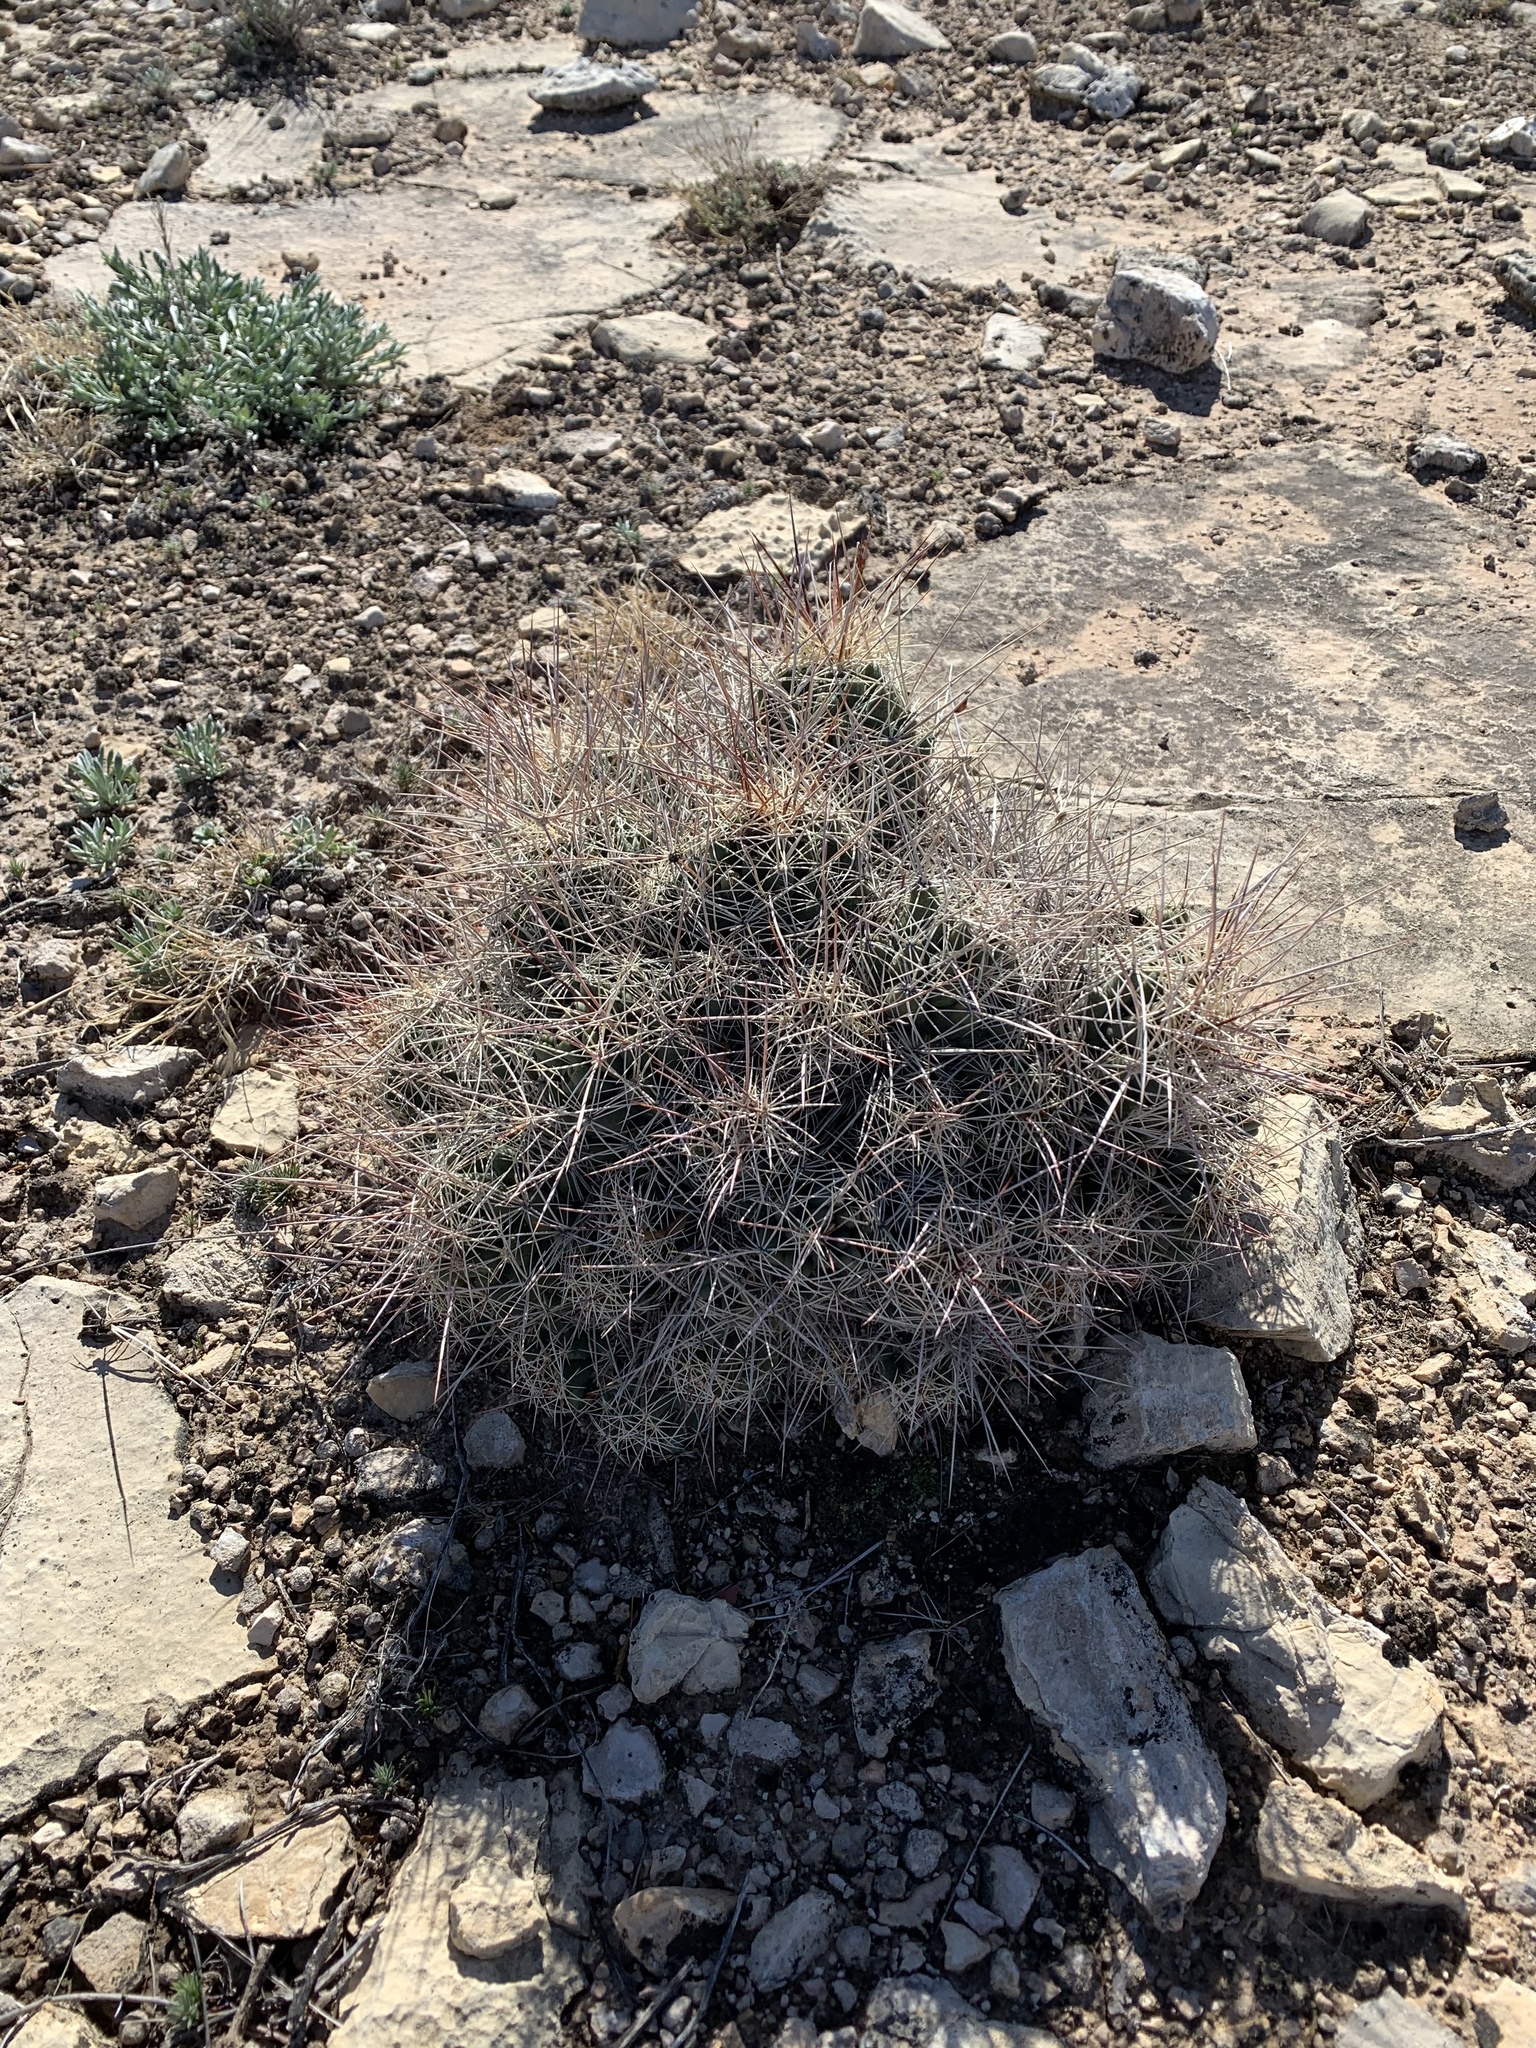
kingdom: Plantae
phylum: Tracheophyta
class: Magnoliopsida
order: Caryophyllales
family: Cactaceae
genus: Coryphantha
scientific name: Coryphantha macromeris
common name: Nipple beehive cactus
